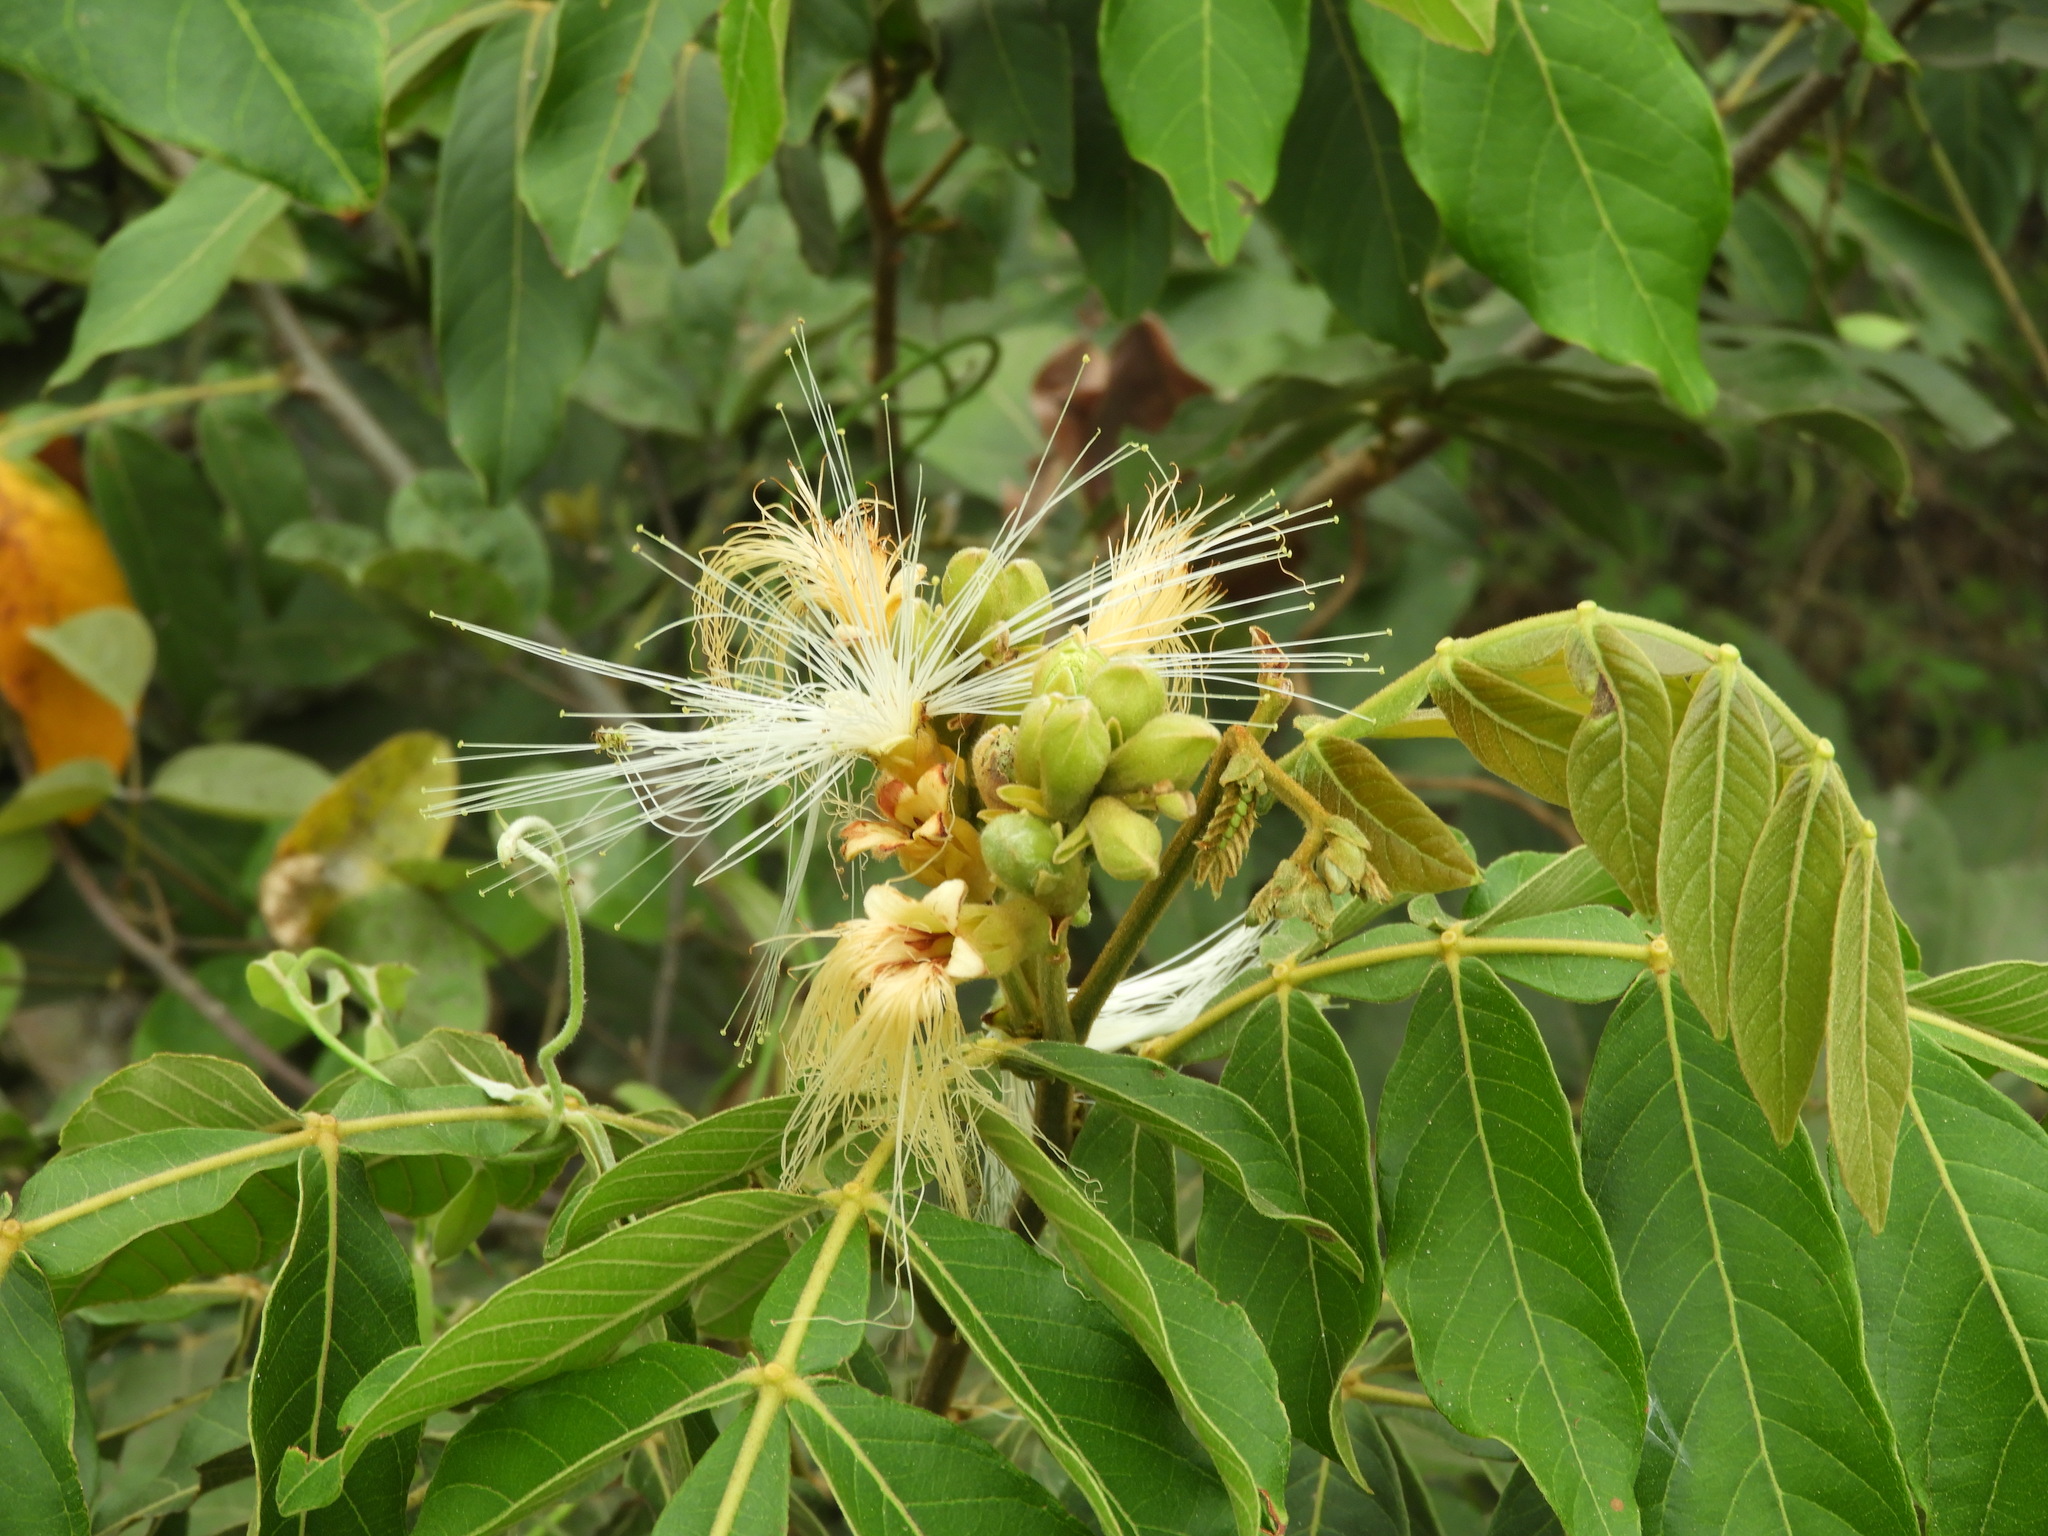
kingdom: Plantae
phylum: Tracheophyta
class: Magnoliopsida
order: Fabales
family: Fabaceae
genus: Inga
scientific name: Inga vera
